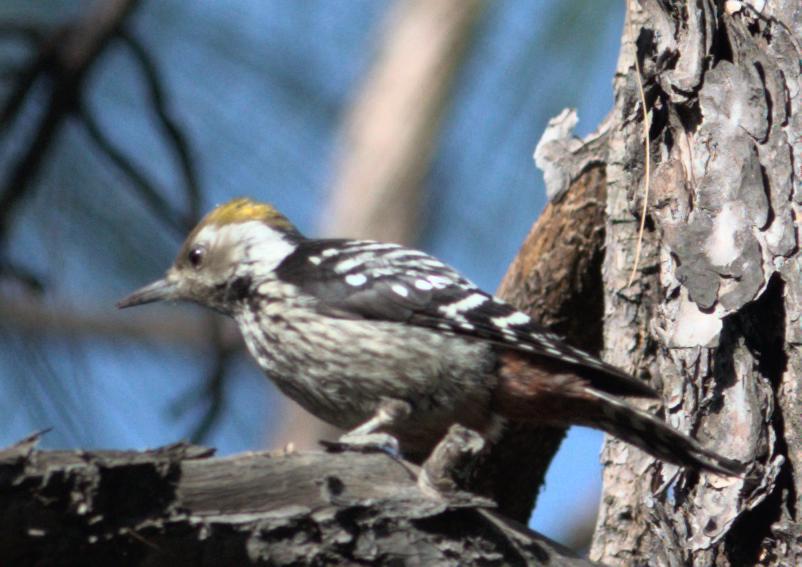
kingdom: Animalia
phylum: Chordata
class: Aves
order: Piciformes
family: Picidae
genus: Dendrocoptes
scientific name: Dendrocoptes auriceps
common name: Brown-fronted woodpecker
